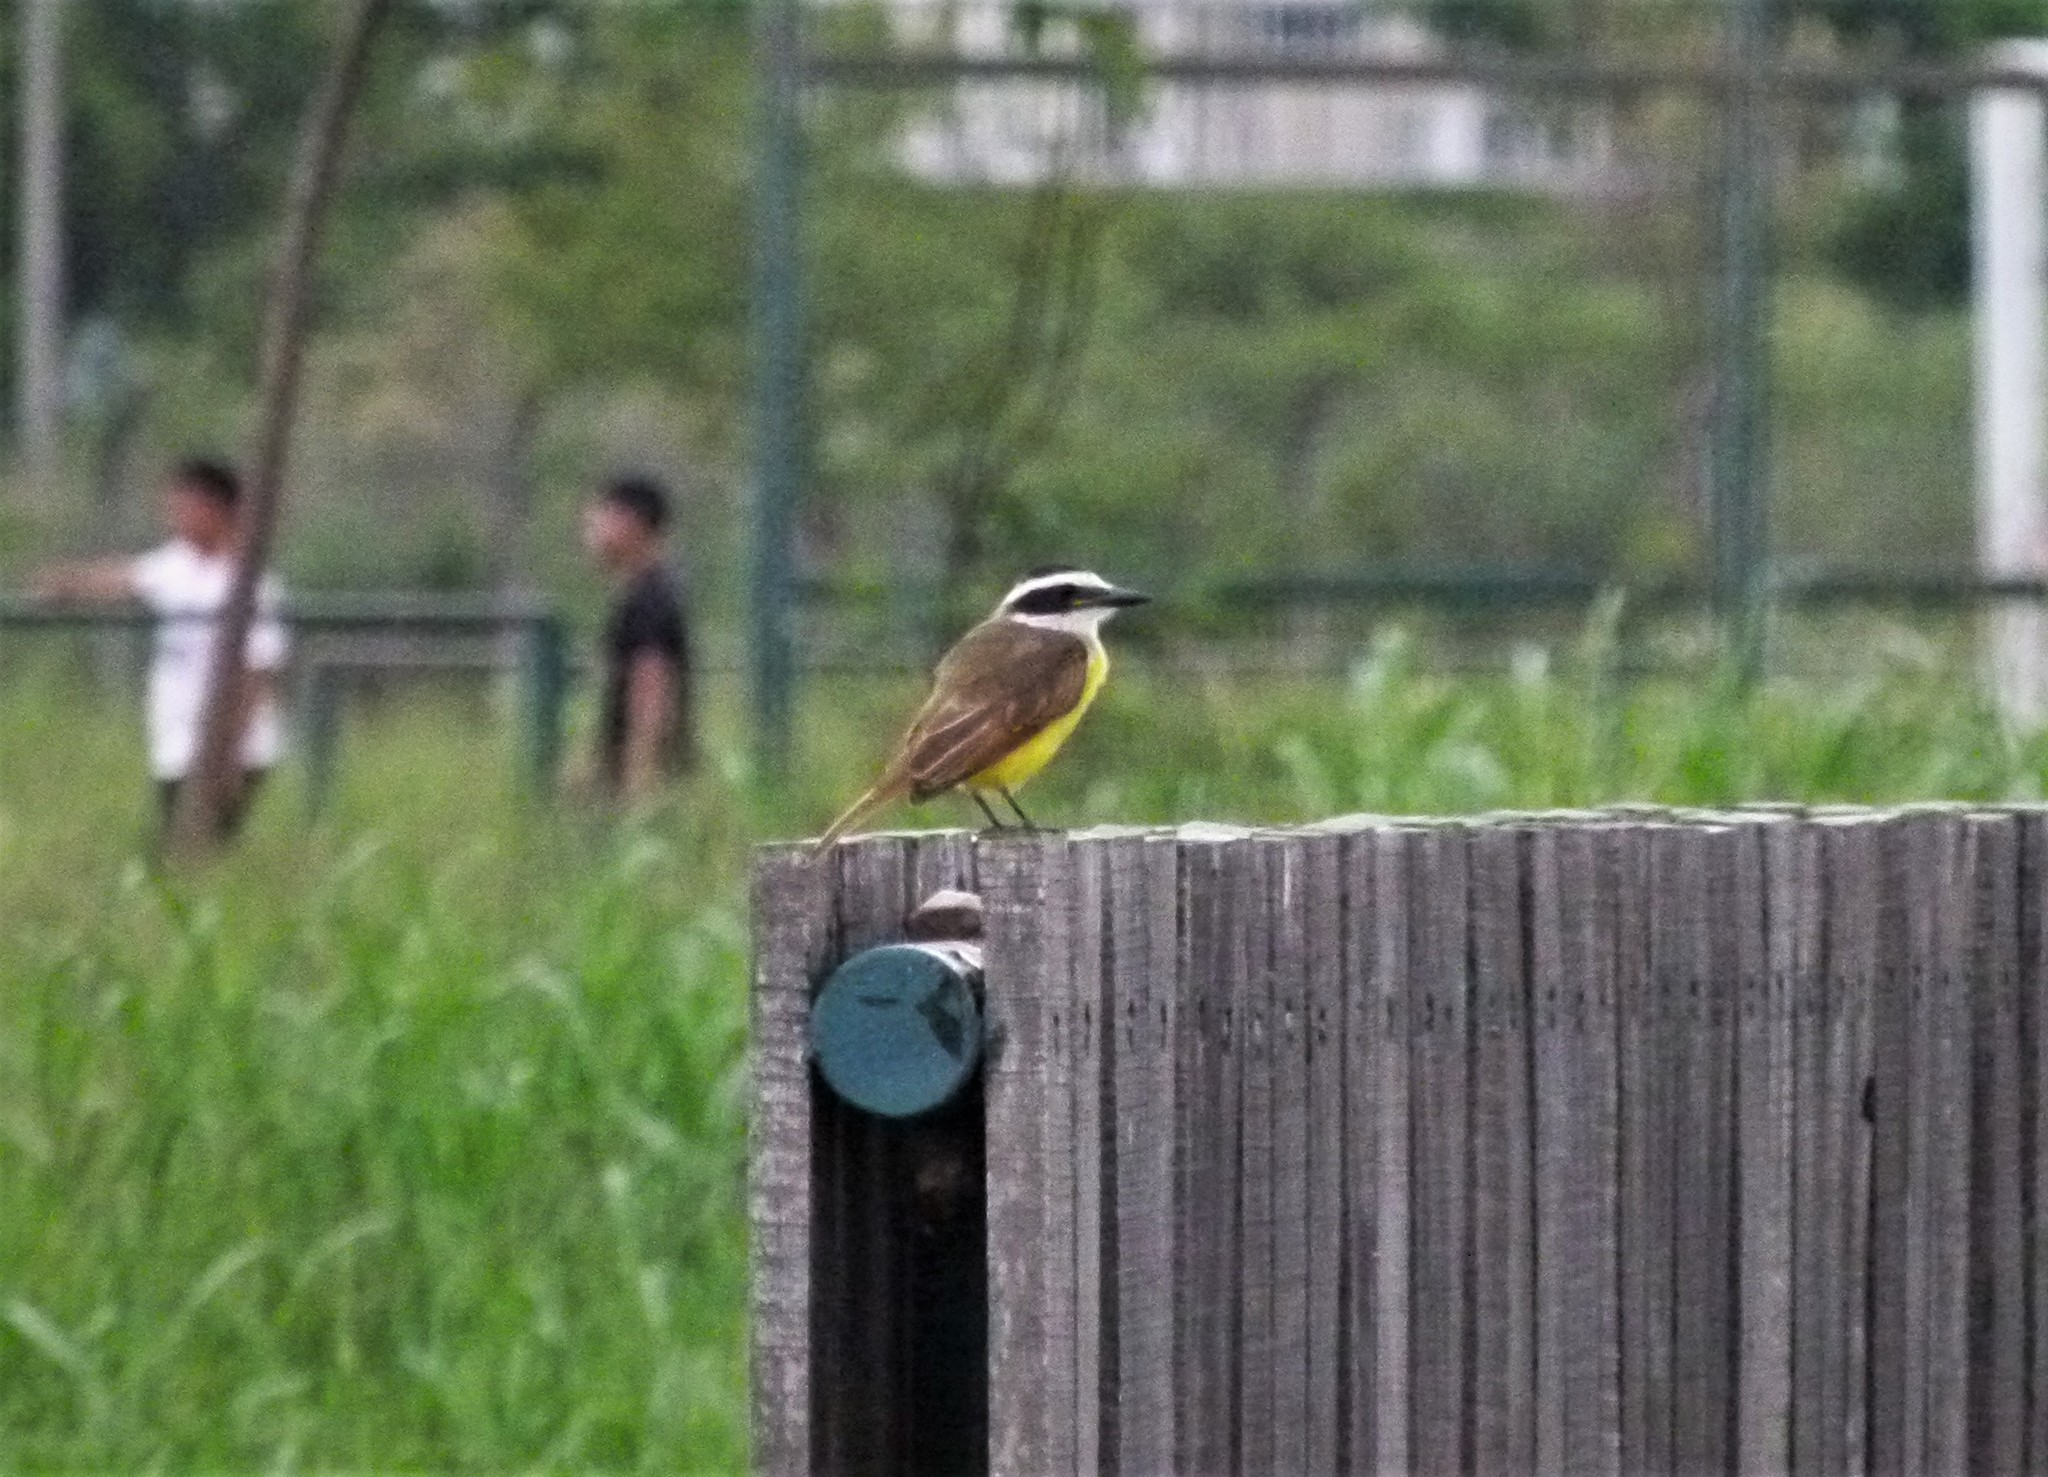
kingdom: Animalia
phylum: Chordata
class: Aves
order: Passeriformes
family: Tyrannidae
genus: Pitangus
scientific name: Pitangus sulphuratus
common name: Great kiskadee
